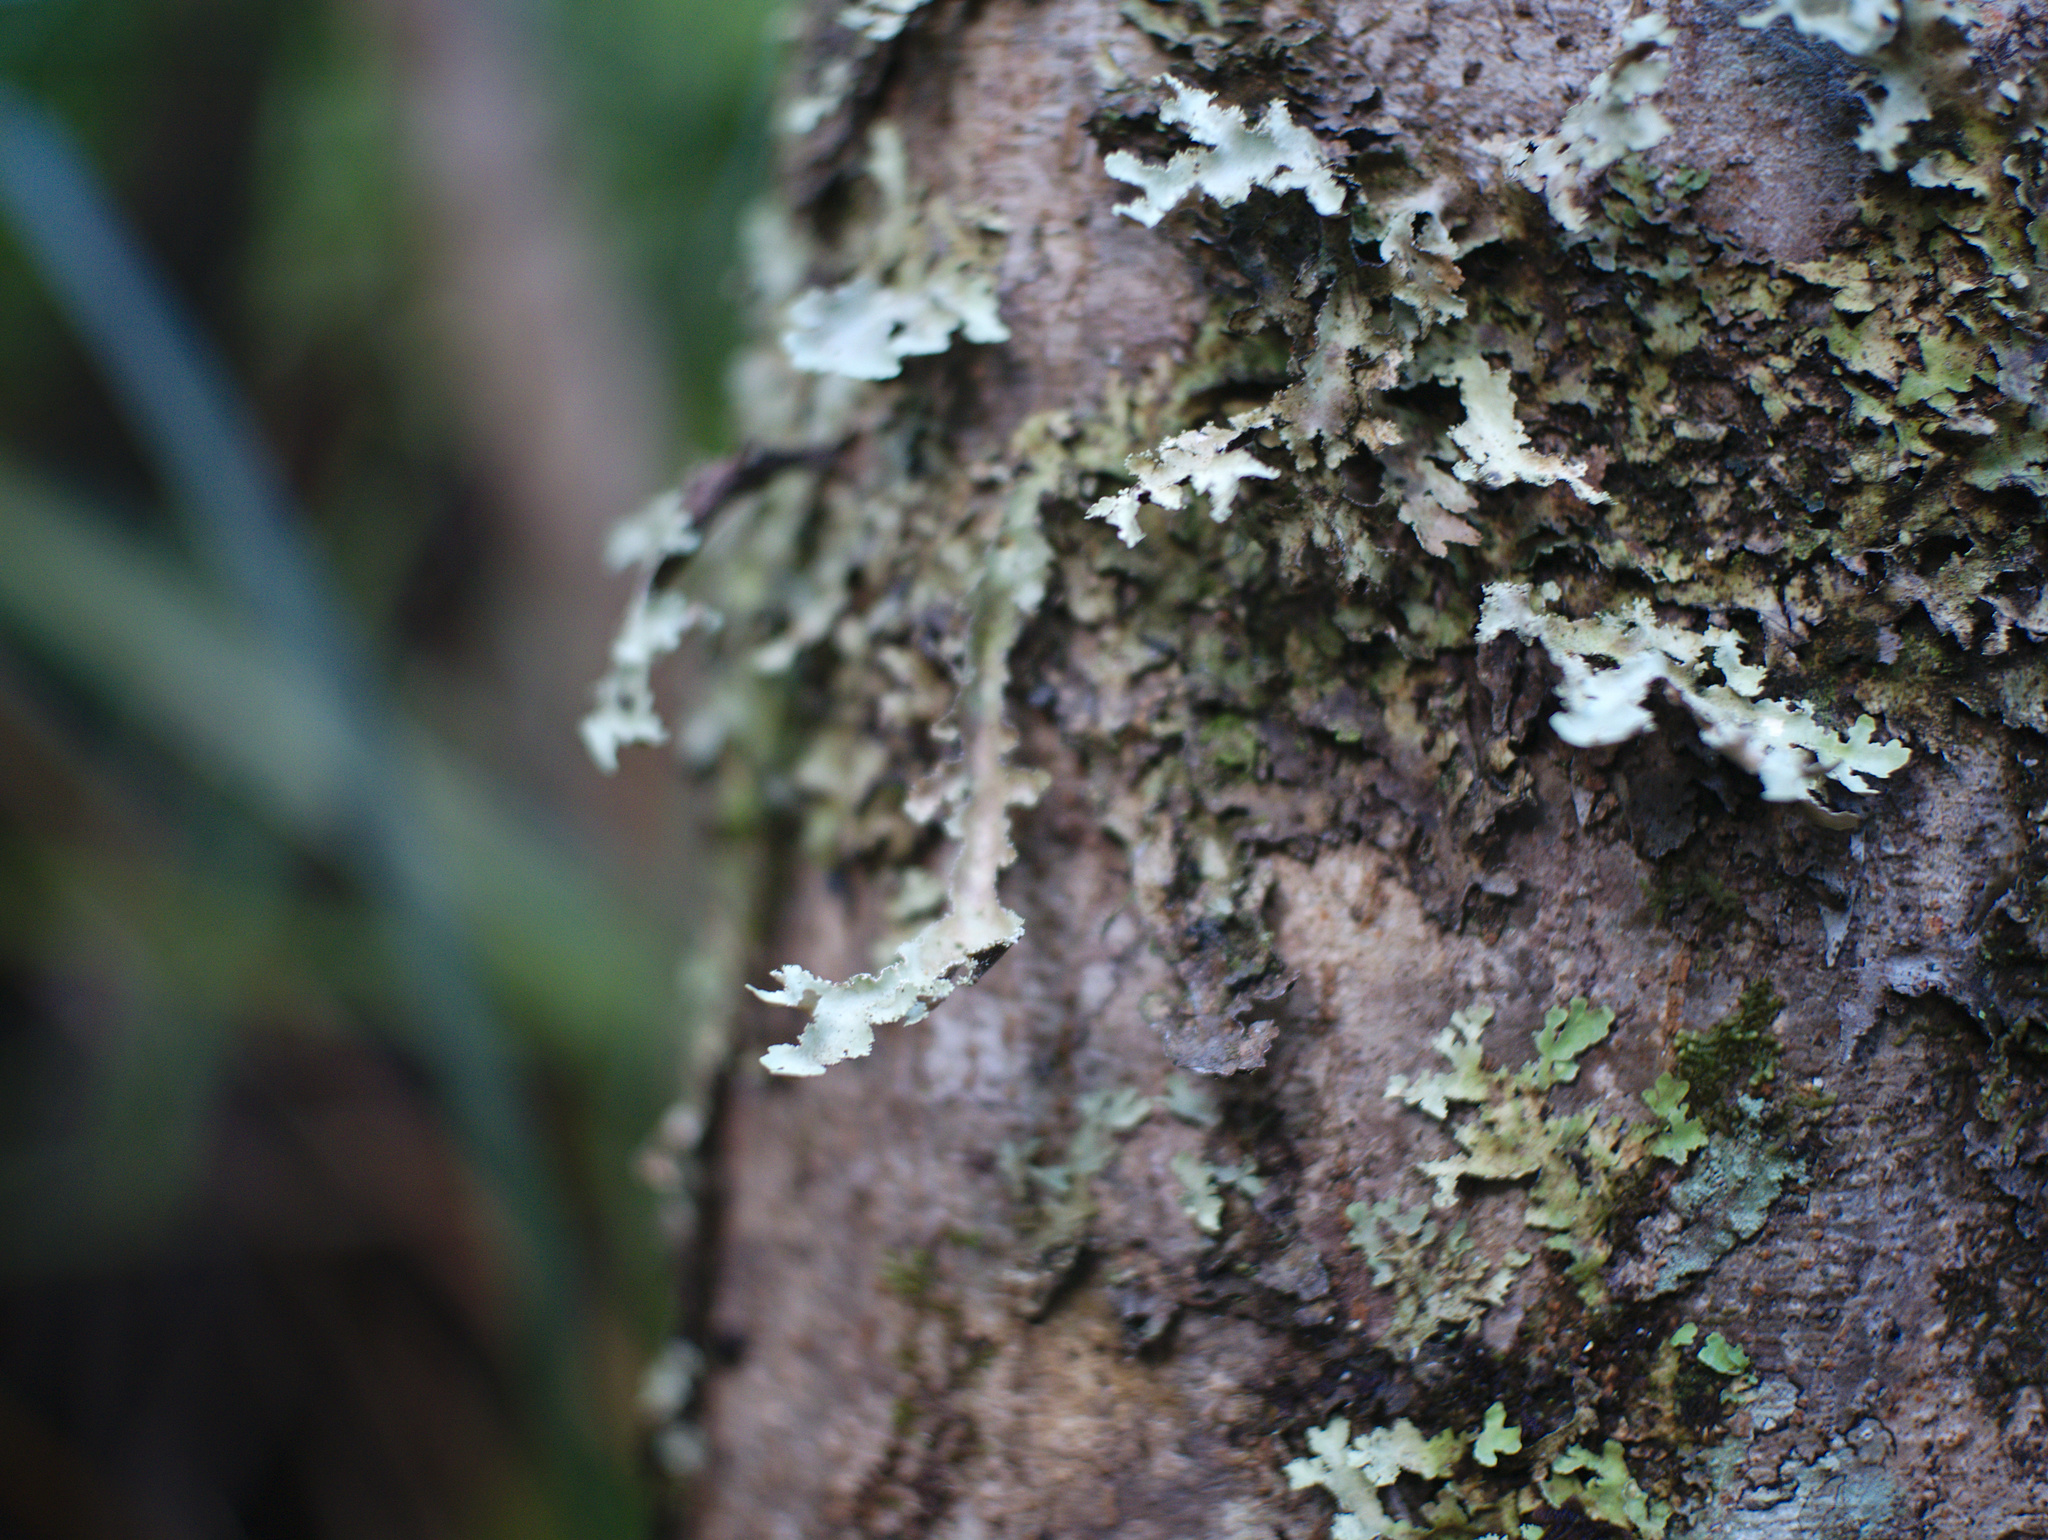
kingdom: Fungi
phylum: Ascomycota
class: Lecanoromycetes
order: Peltigerales
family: Lobariaceae
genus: Pseudocyphellaria
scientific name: Pseudocyphellaria glabra
